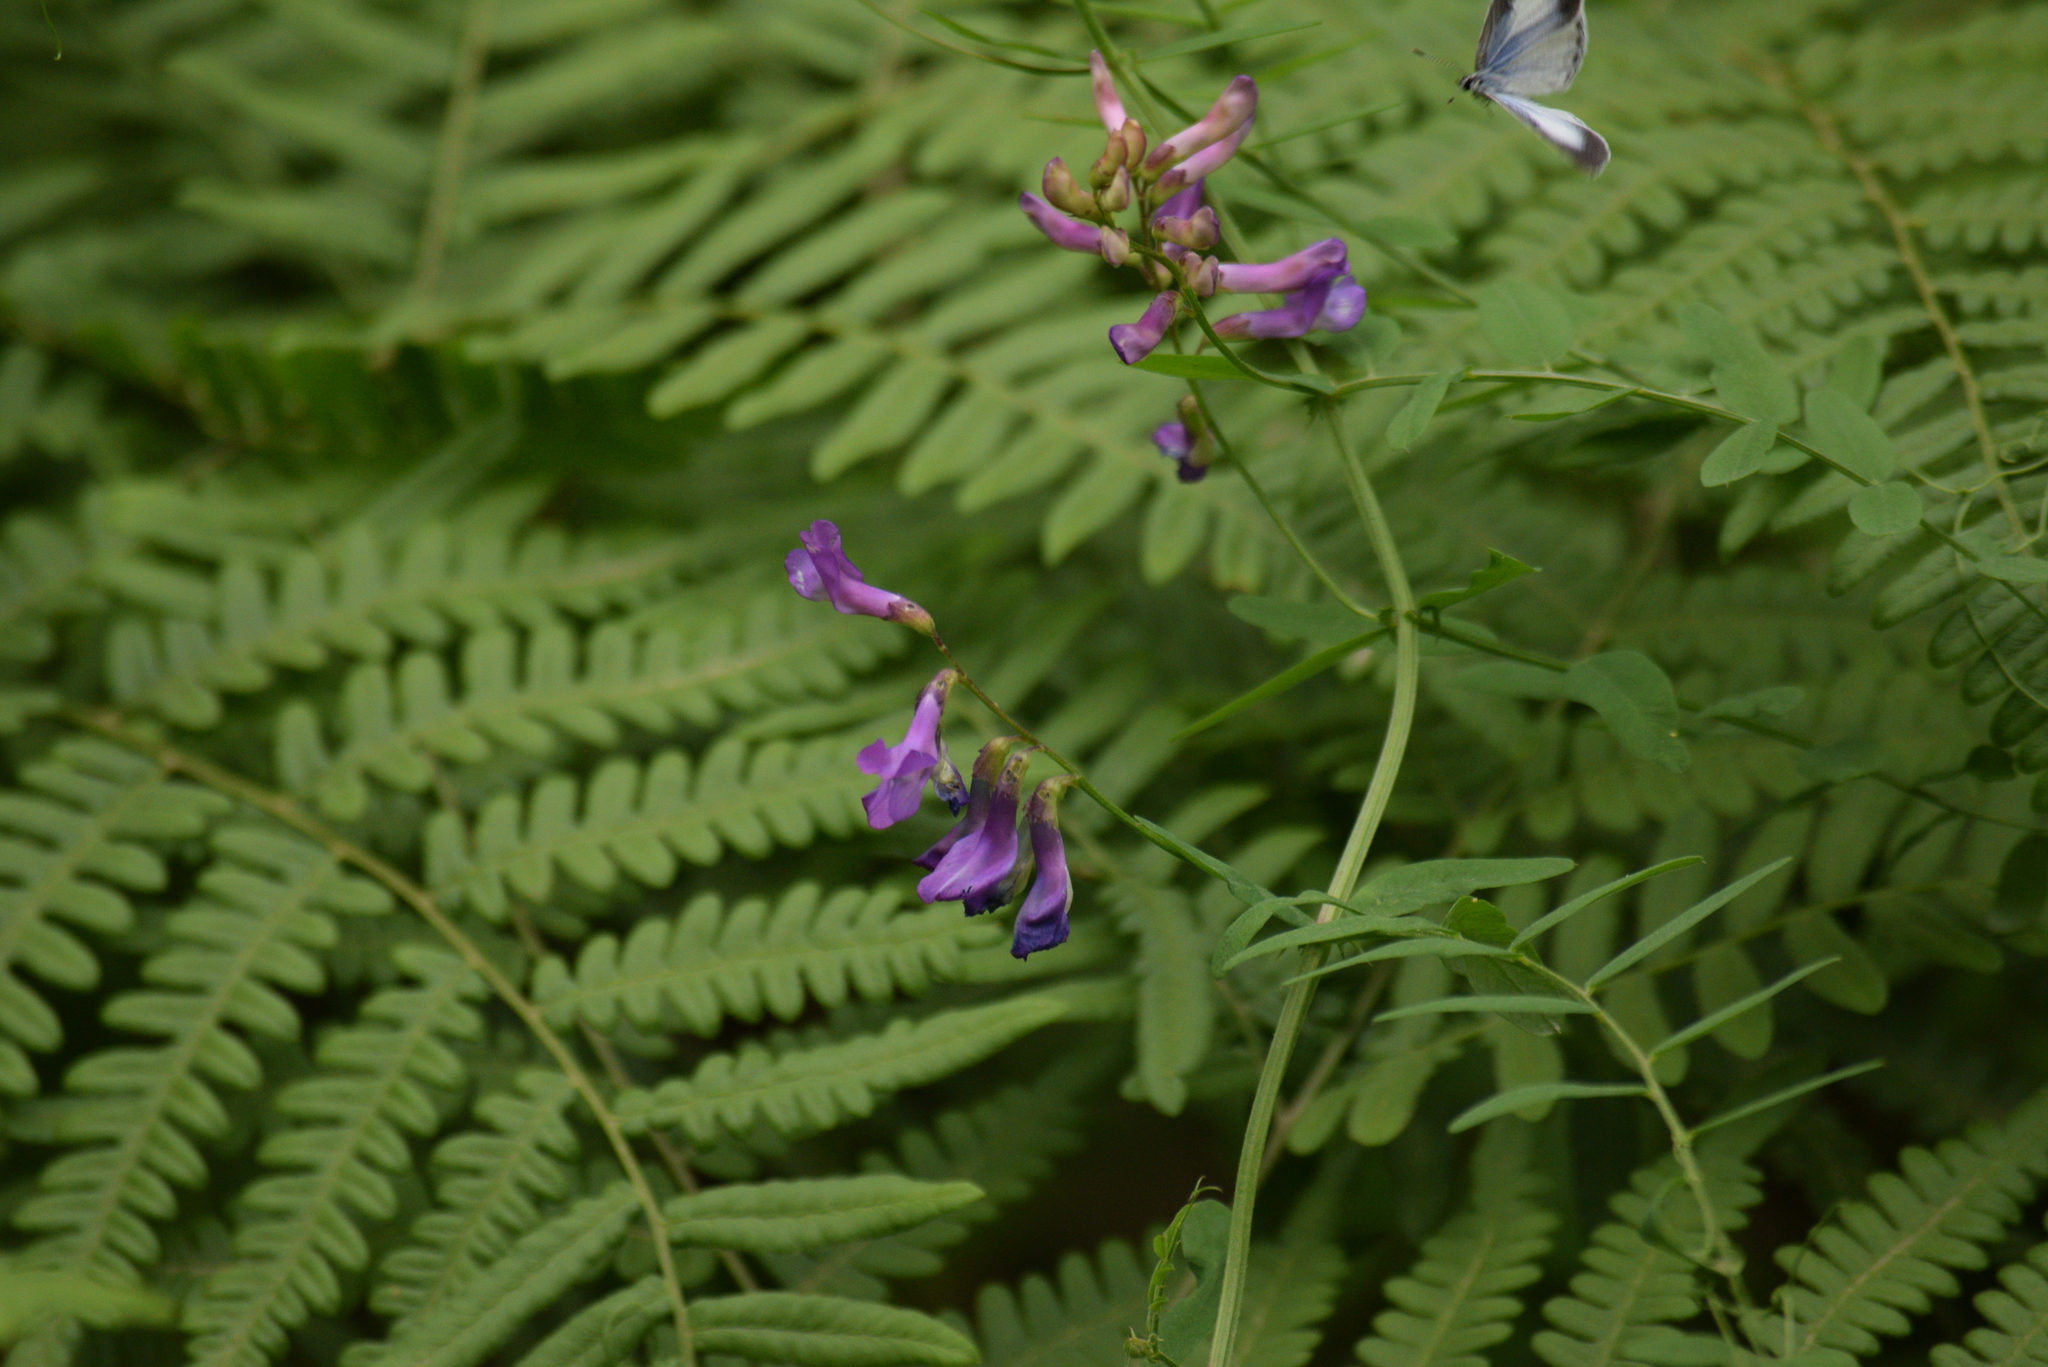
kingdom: Plantae
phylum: Tracheophyta
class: Magnoliopsida
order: Fabales
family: Fabaceae
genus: Vicia
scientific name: Vicia americana
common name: American vetch
